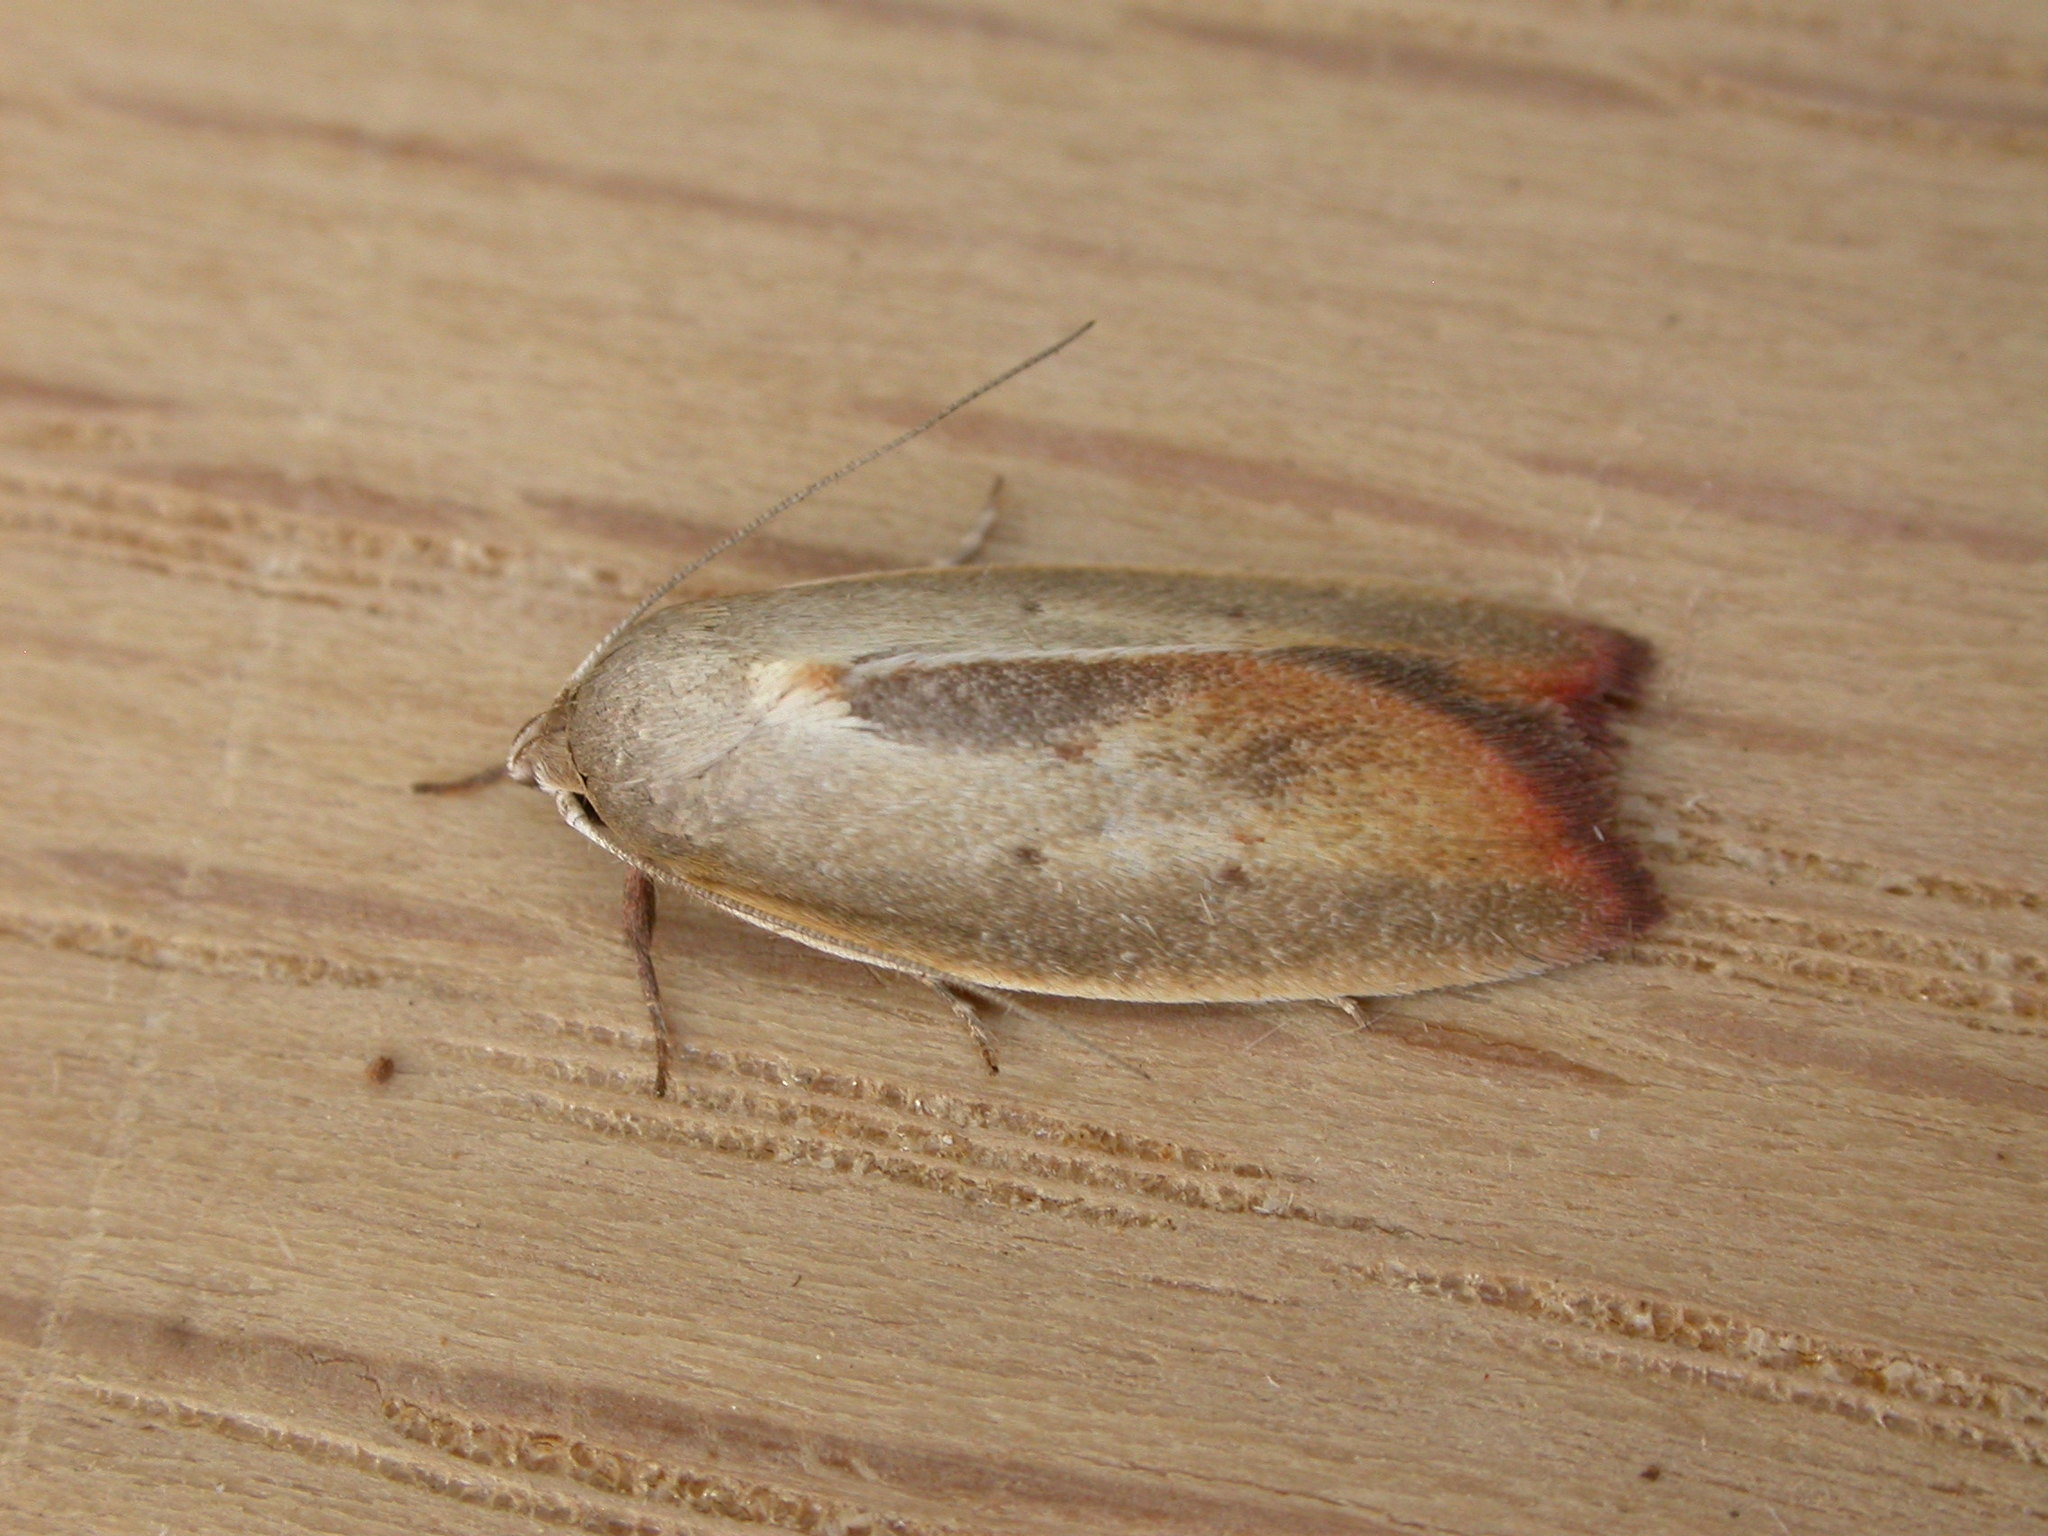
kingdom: Animalia
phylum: Arthropoda
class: Insecta
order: Lepidoptera
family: Oecophoridae
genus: Ptyoptila
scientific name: Ptyoptila matutinella
